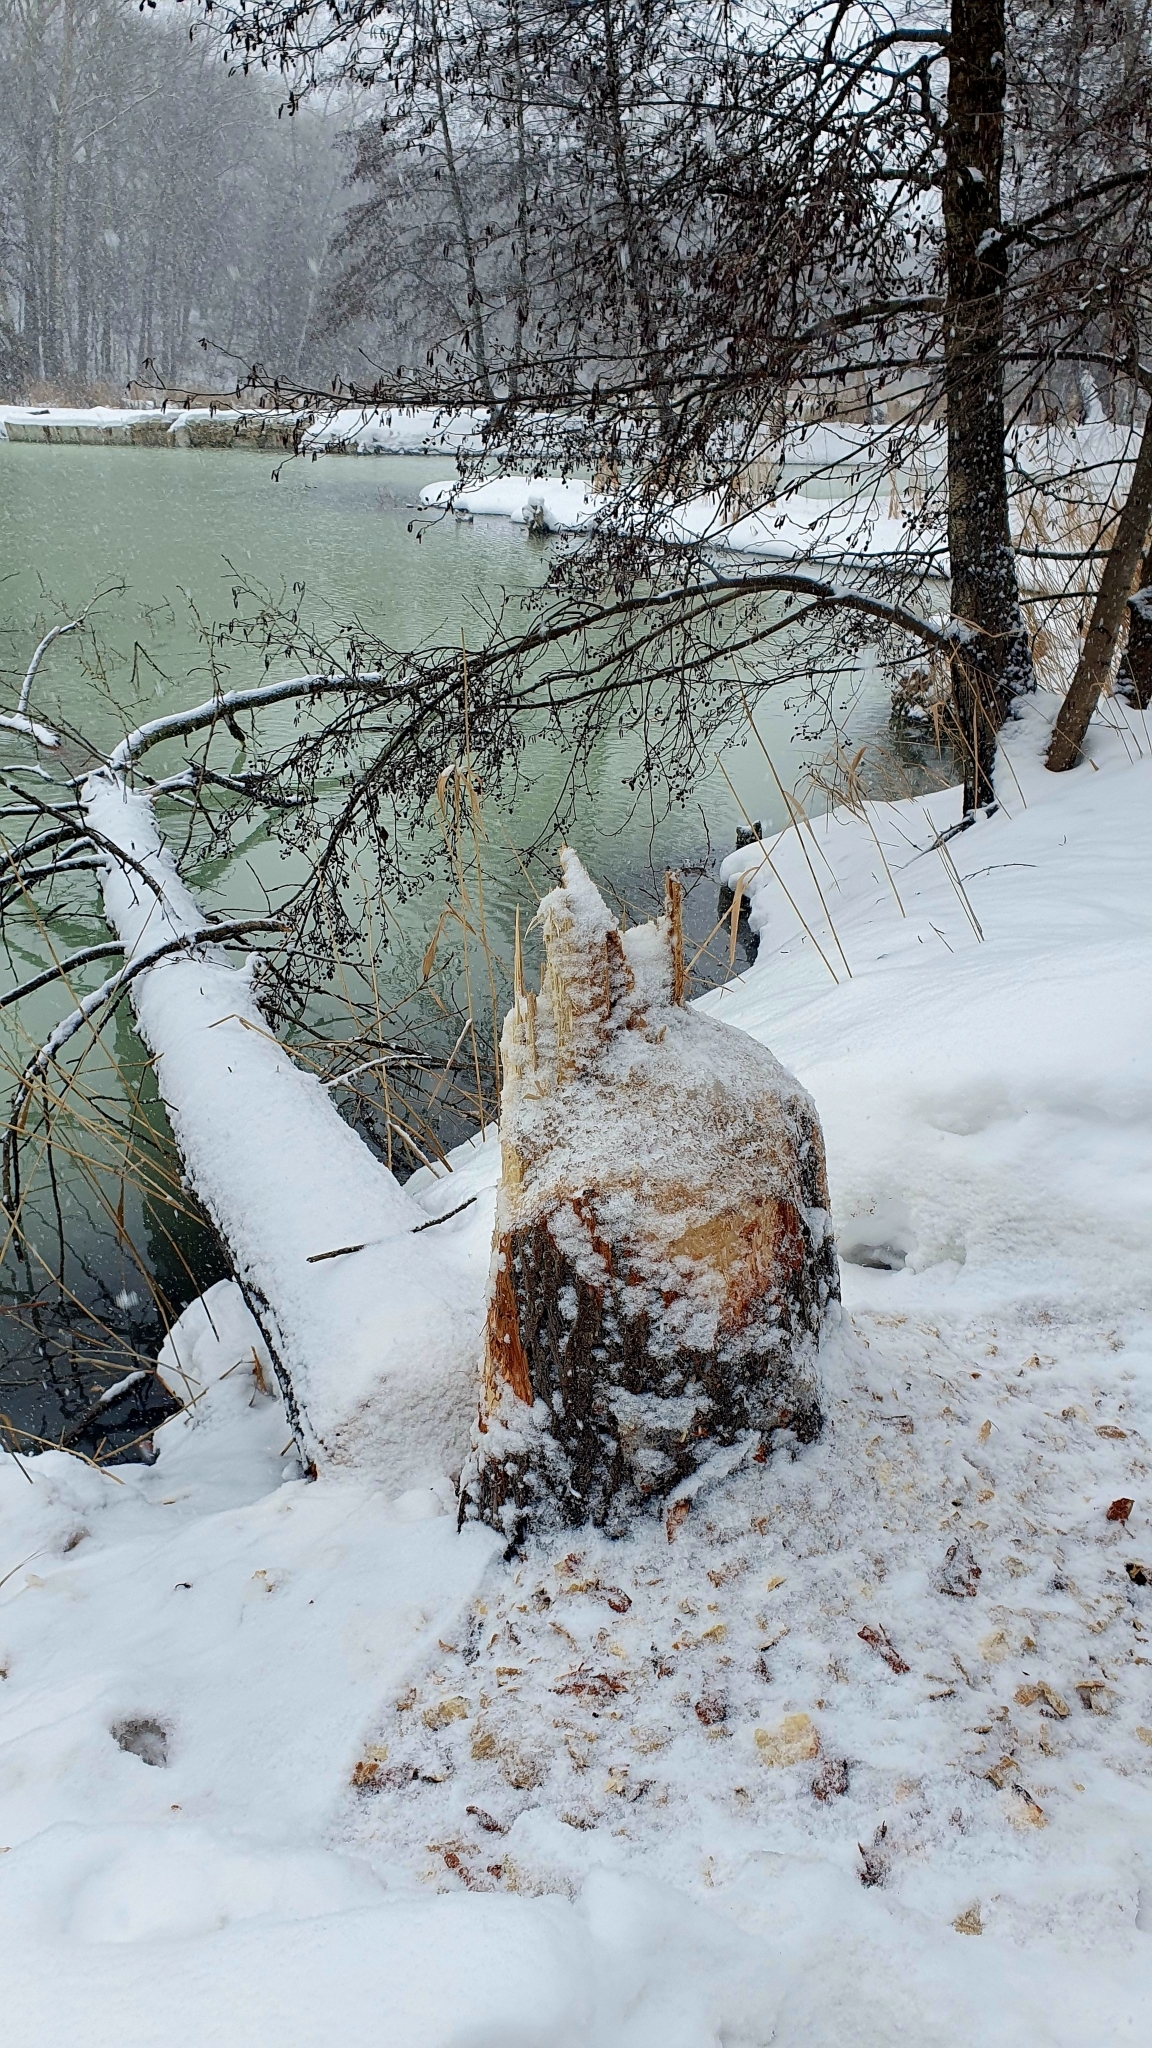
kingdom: Animalia
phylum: Chordata
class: Mammalia
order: Rodentia
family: Castoridae
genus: Castor
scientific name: Castor fiber
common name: Eurasian beaver
